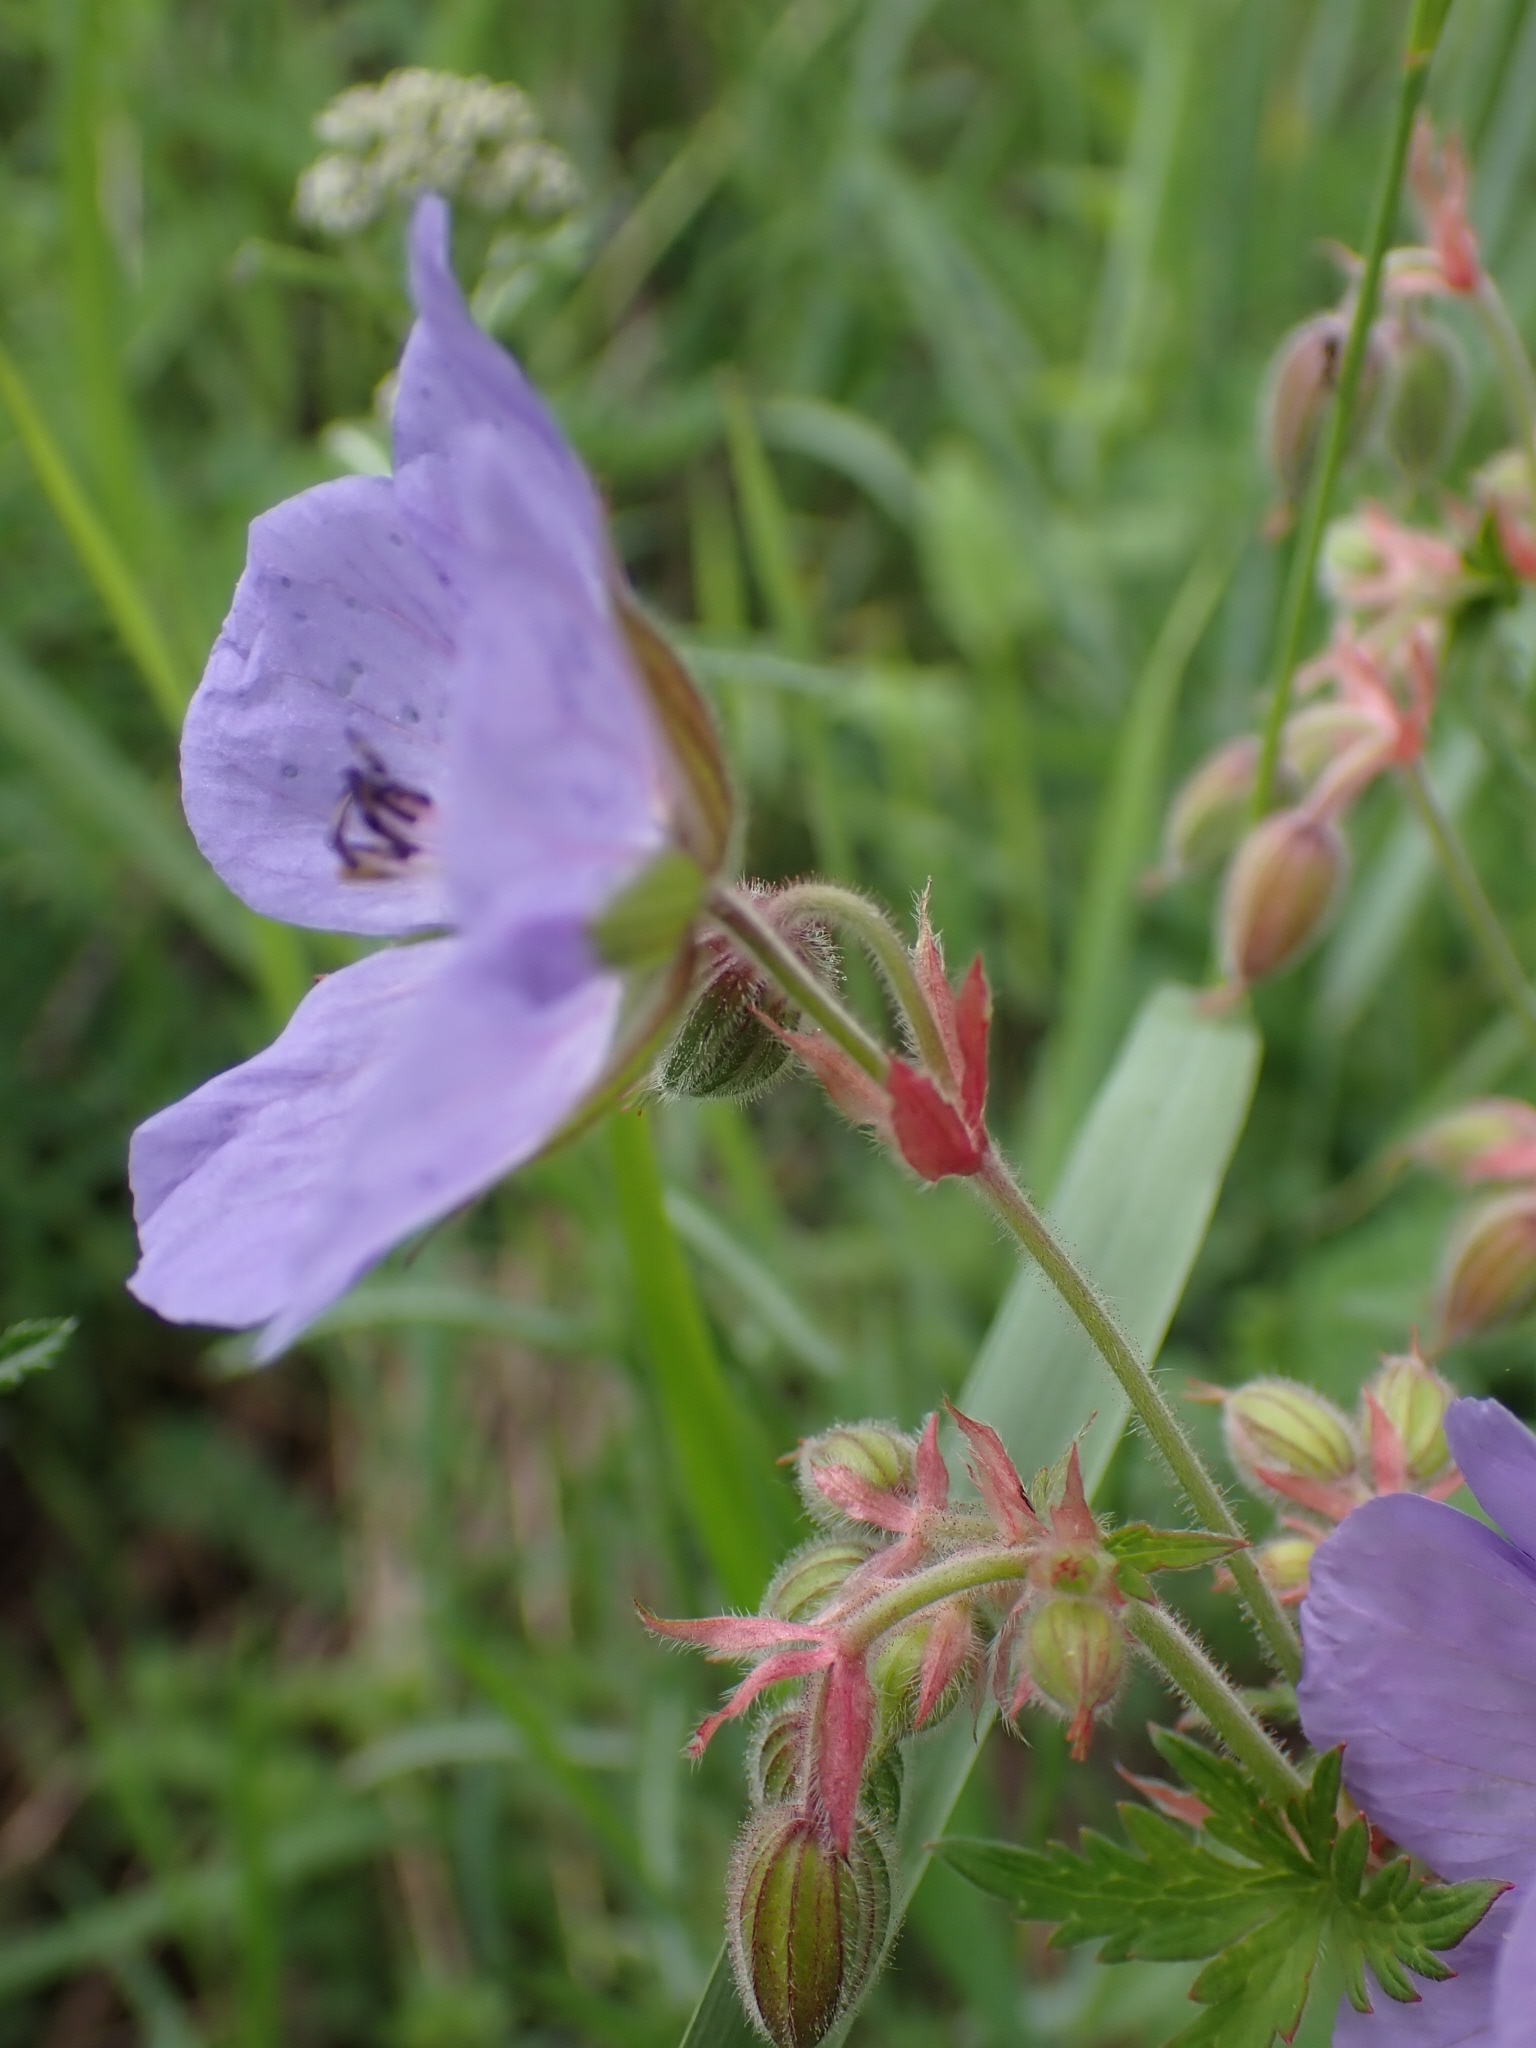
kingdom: Plantae
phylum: Tracheophyta
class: Magnoliopsida
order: Geraniales
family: Geraniaceae
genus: Geranium
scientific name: Geranium pratense
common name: Meadow crane's-bill
